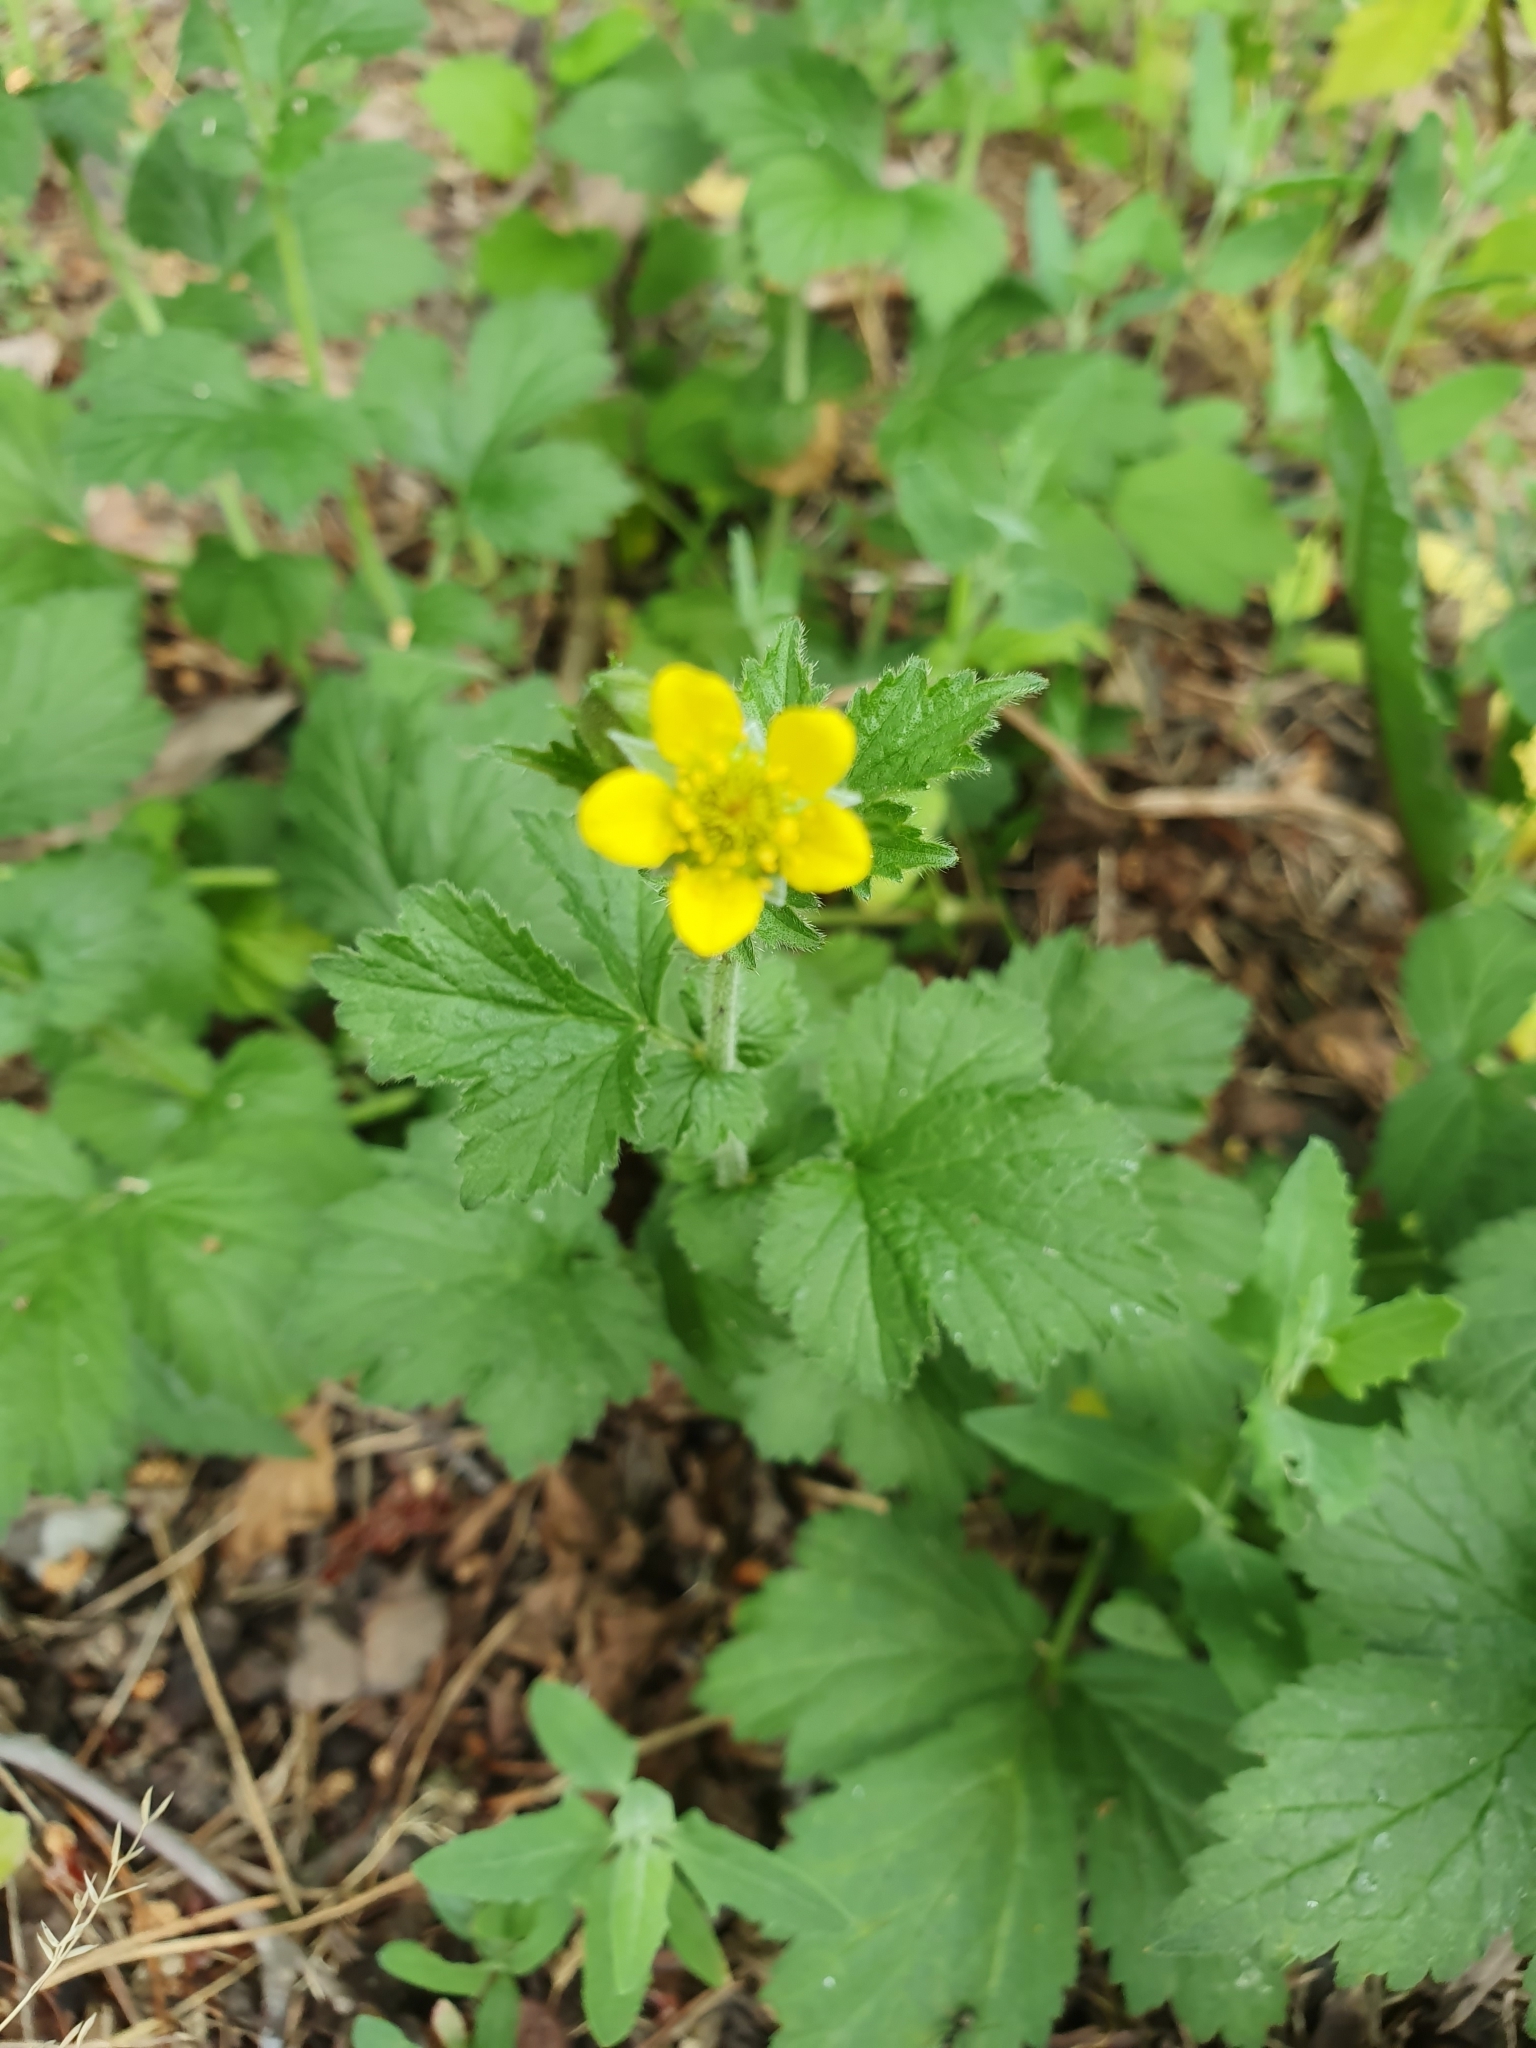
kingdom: Plantae
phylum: Tracheophyta
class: Magnoliopsida
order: Rosales
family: Rosaceae
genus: Geum
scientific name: Geum urbanum
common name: Wood avens
